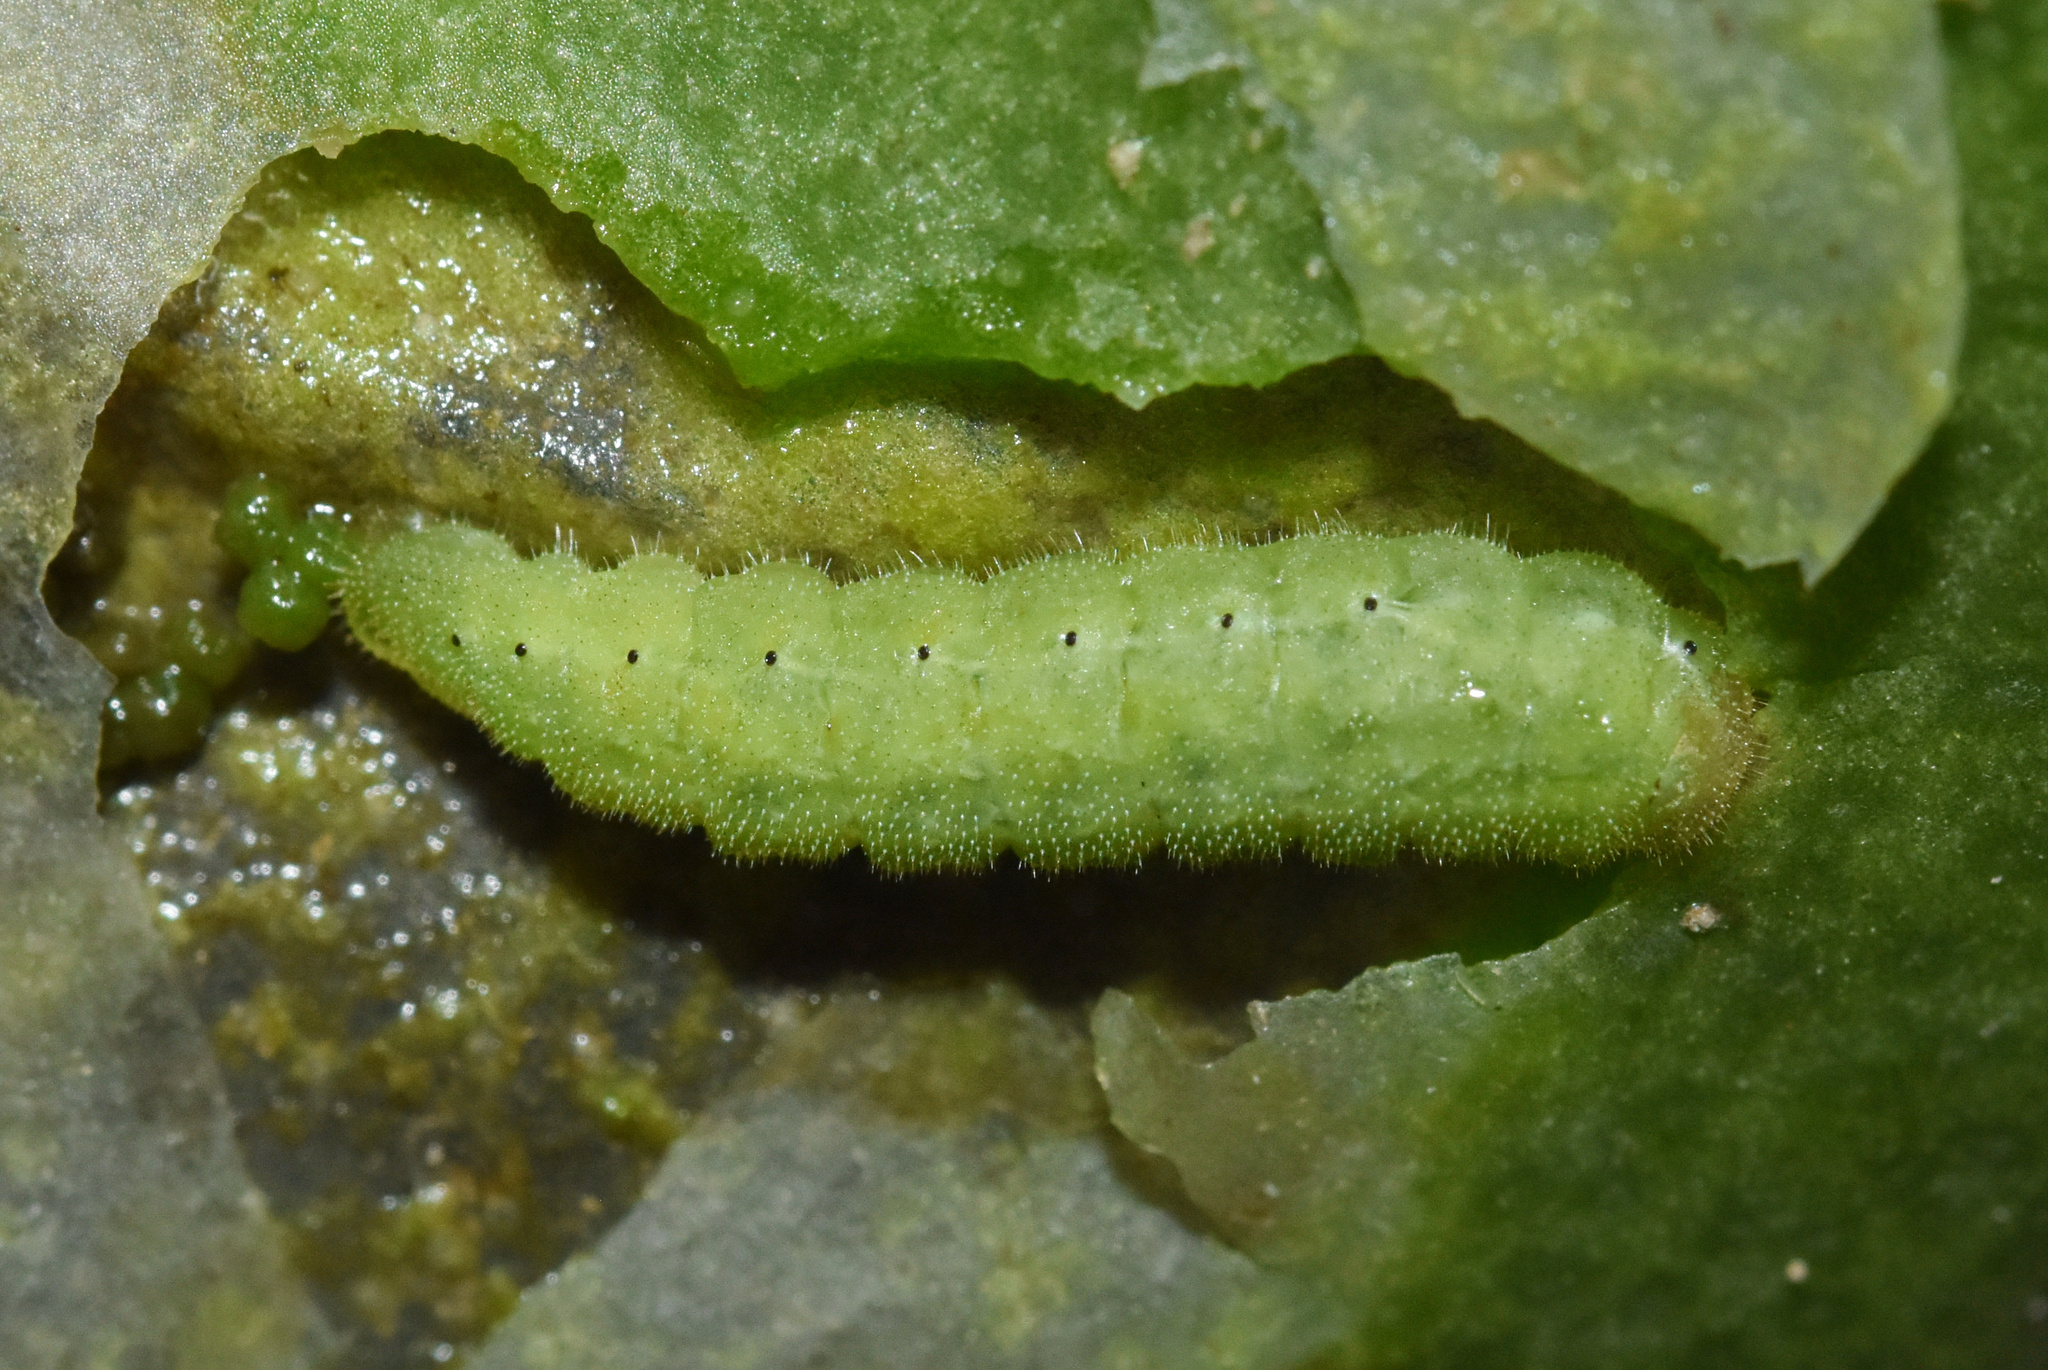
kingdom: Animalia
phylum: Arthropoda
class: Insecta
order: Lepidoptera
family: Lycaenidae
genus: Leptomyrina
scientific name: Leptomyrina gorgias
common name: Common black-eye
